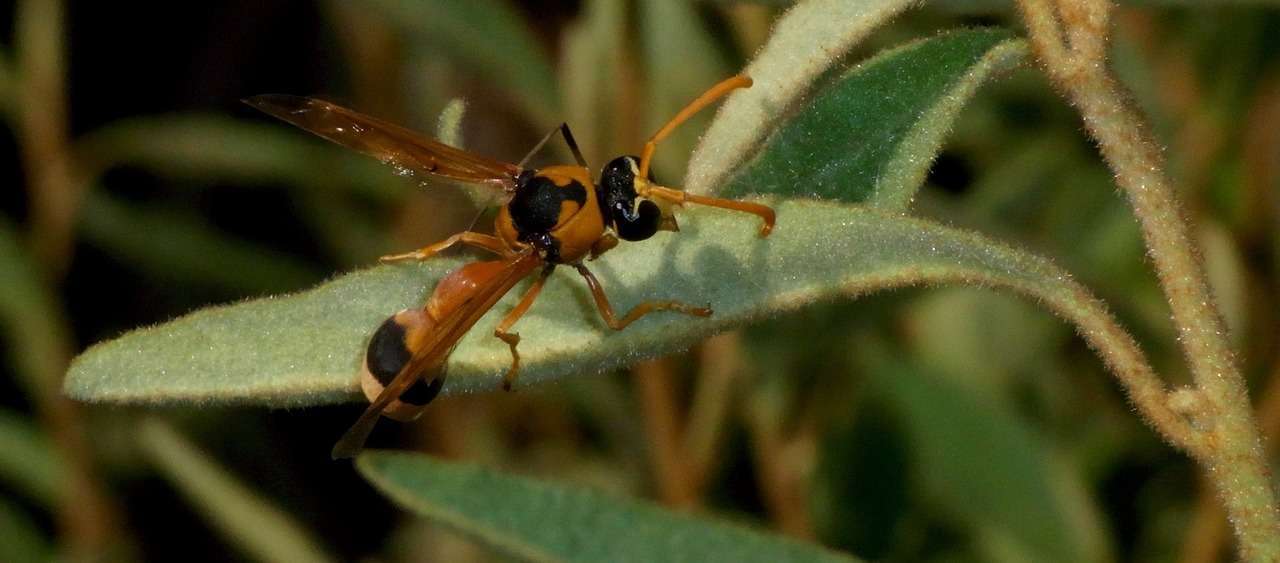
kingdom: Animalia
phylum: Arthropoda
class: Insecta
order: Hymenoptera
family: Eumenidae
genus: Delta
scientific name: Delta bicinctum
